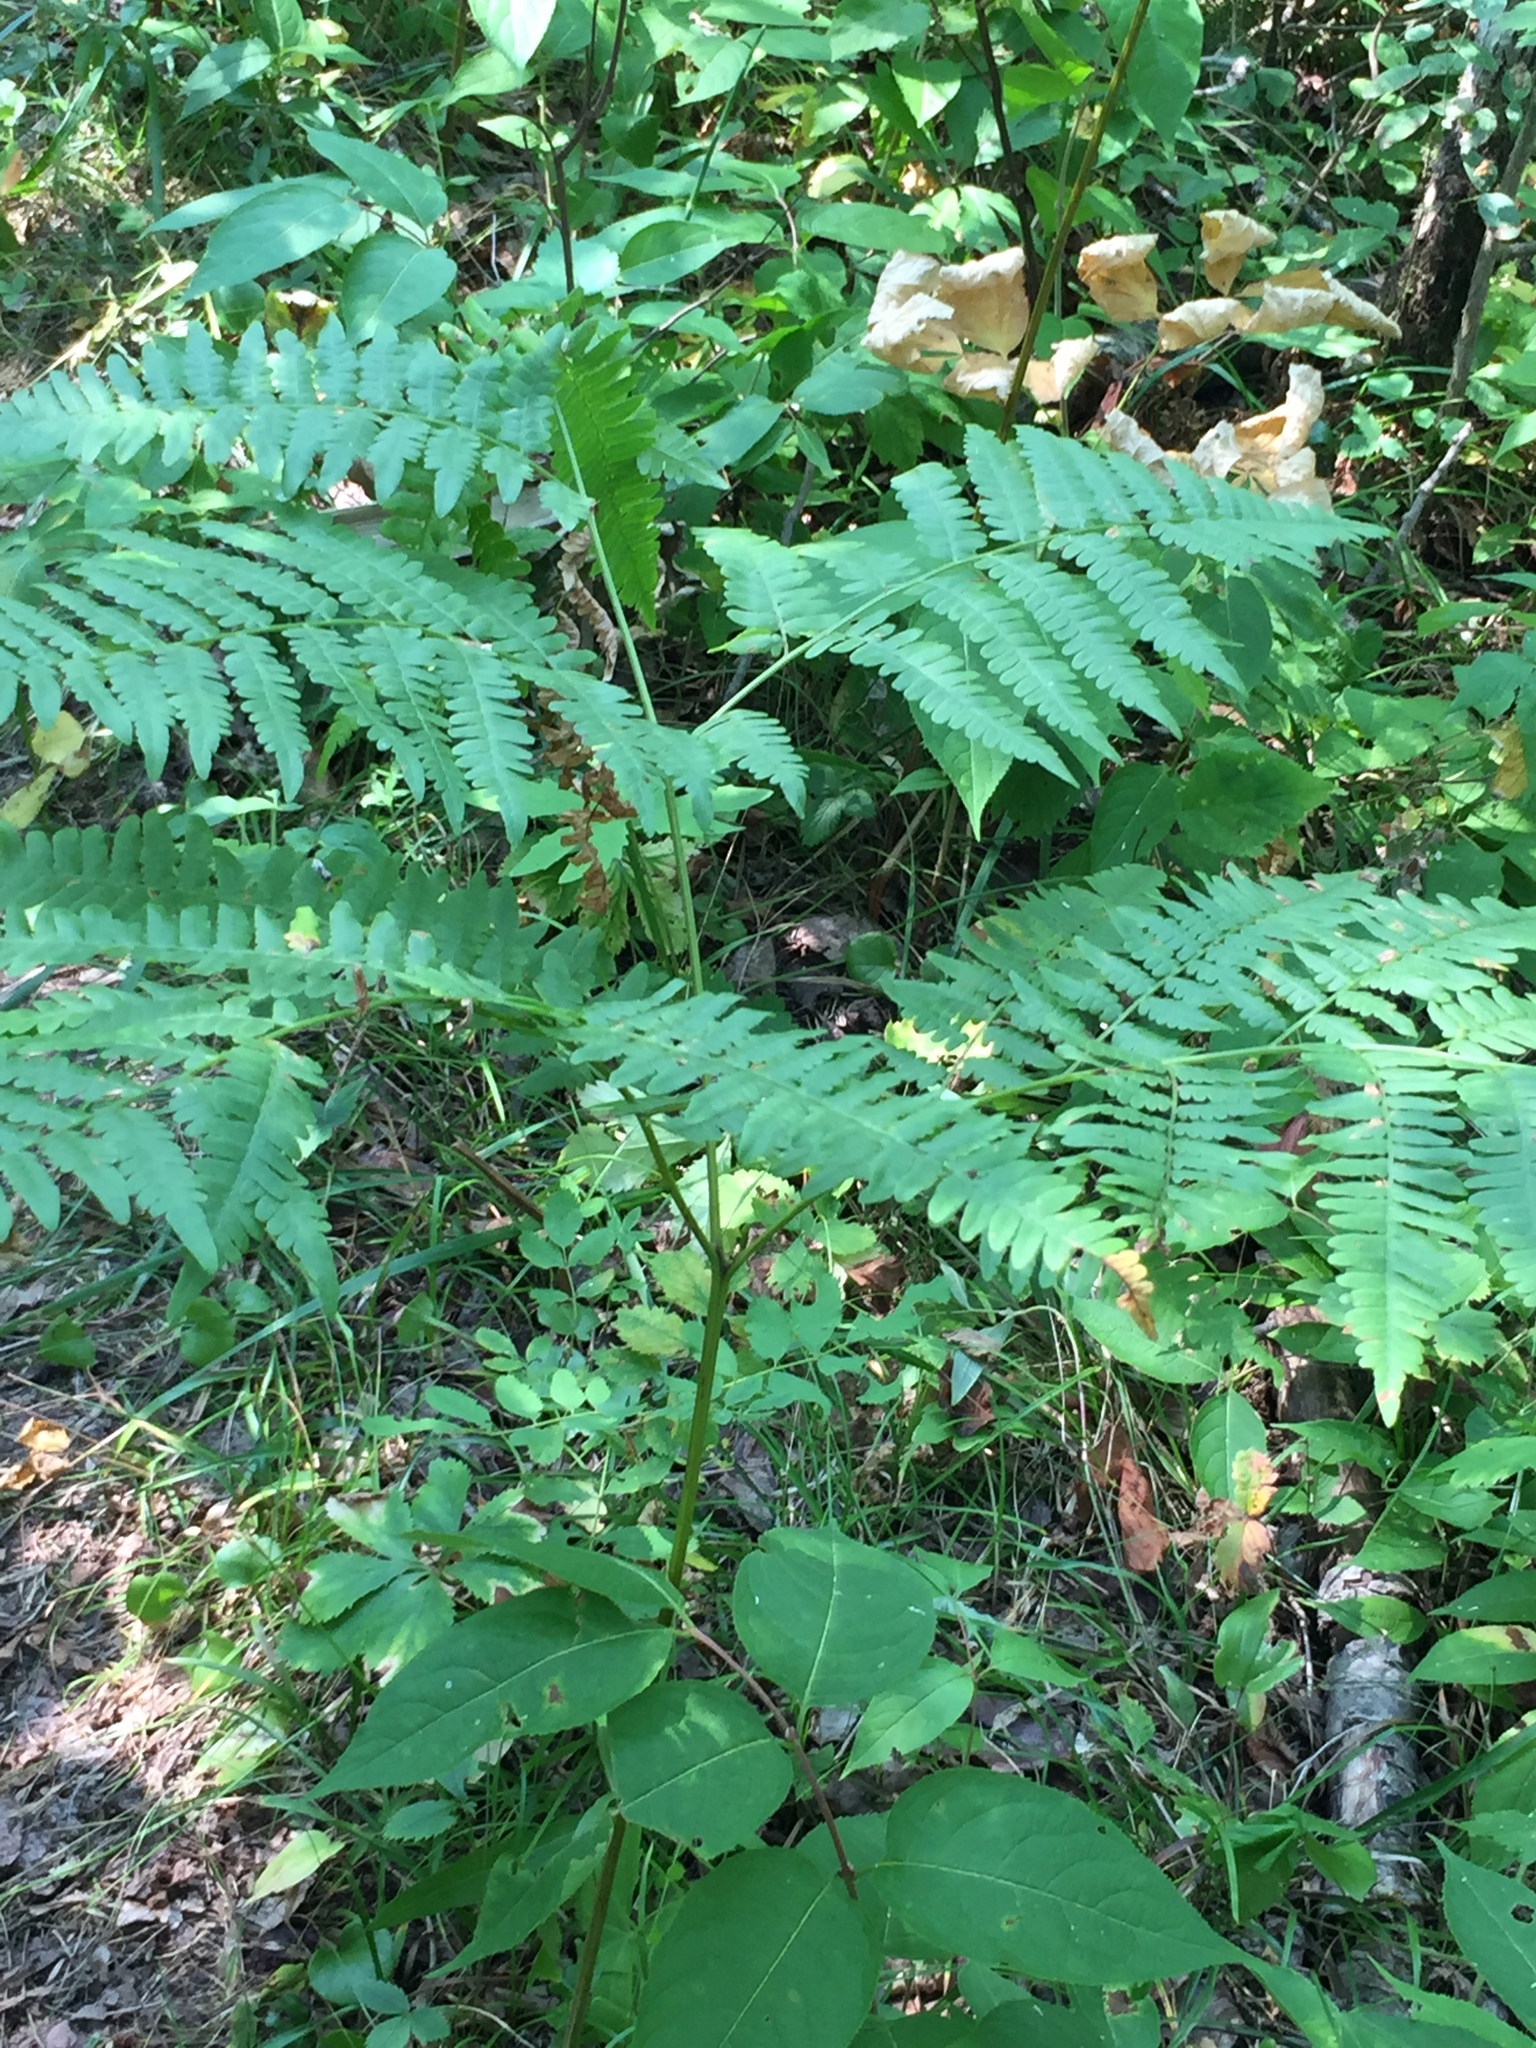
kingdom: Plantae
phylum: Tracheophyta
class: Polypodiopsida
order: Polypodiales
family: Dennstaedtiaceae
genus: Pteridium
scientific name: Pteridium aquilinum
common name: Bracken
